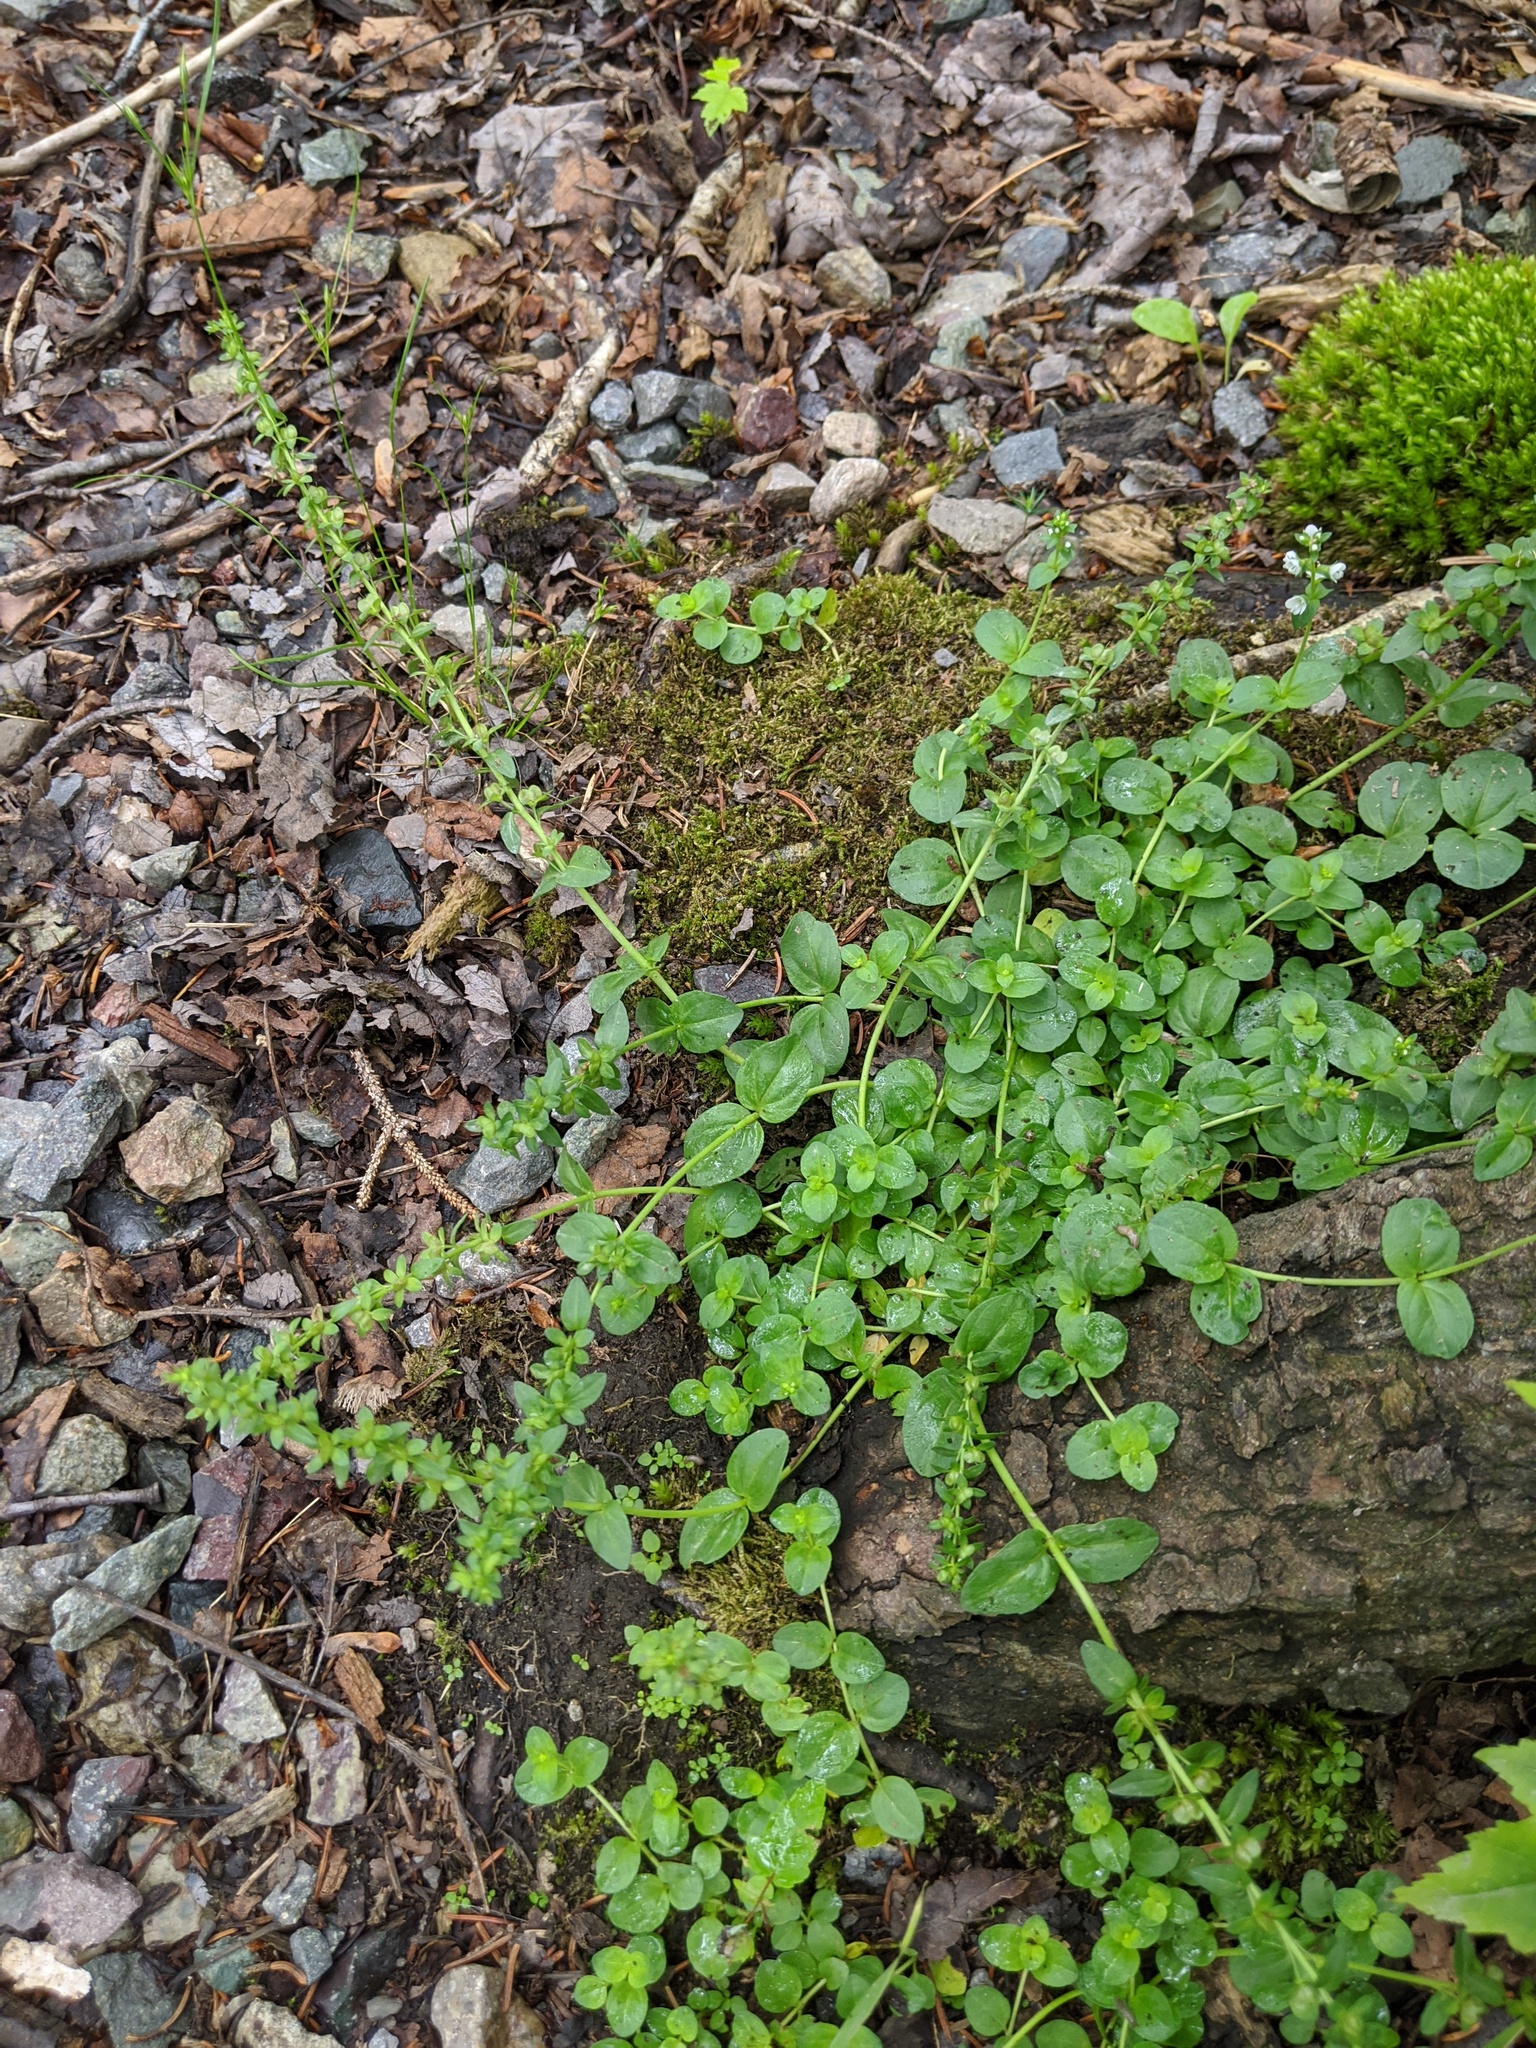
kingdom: Plantae
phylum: Tracheophyta
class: Magnoliopsida
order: Lamiales
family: Plantaginaceae
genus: Veronica
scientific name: Veronica serpyllifolia
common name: Thyme-leaved speedwell
